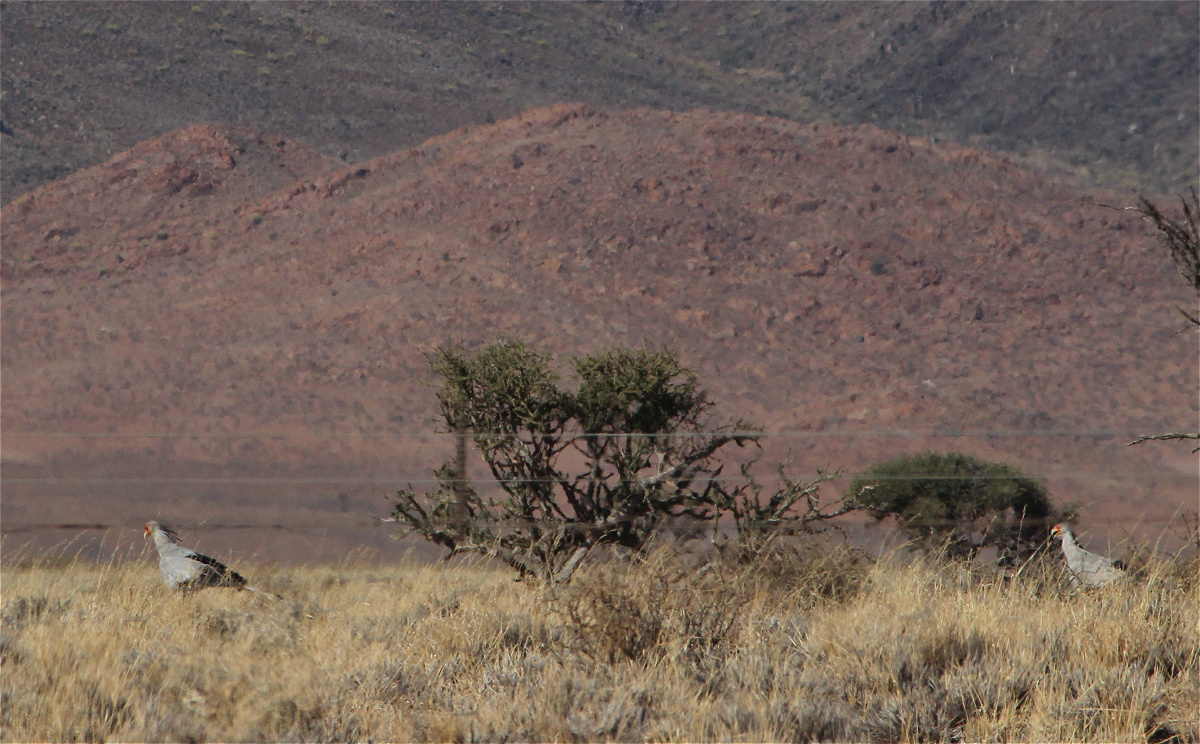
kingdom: Animalia
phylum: Chordata
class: Aves
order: Accipitriformes
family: Sagittariidae
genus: Sagittarius
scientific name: Sagittarius serpentarius
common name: Secretarybird
